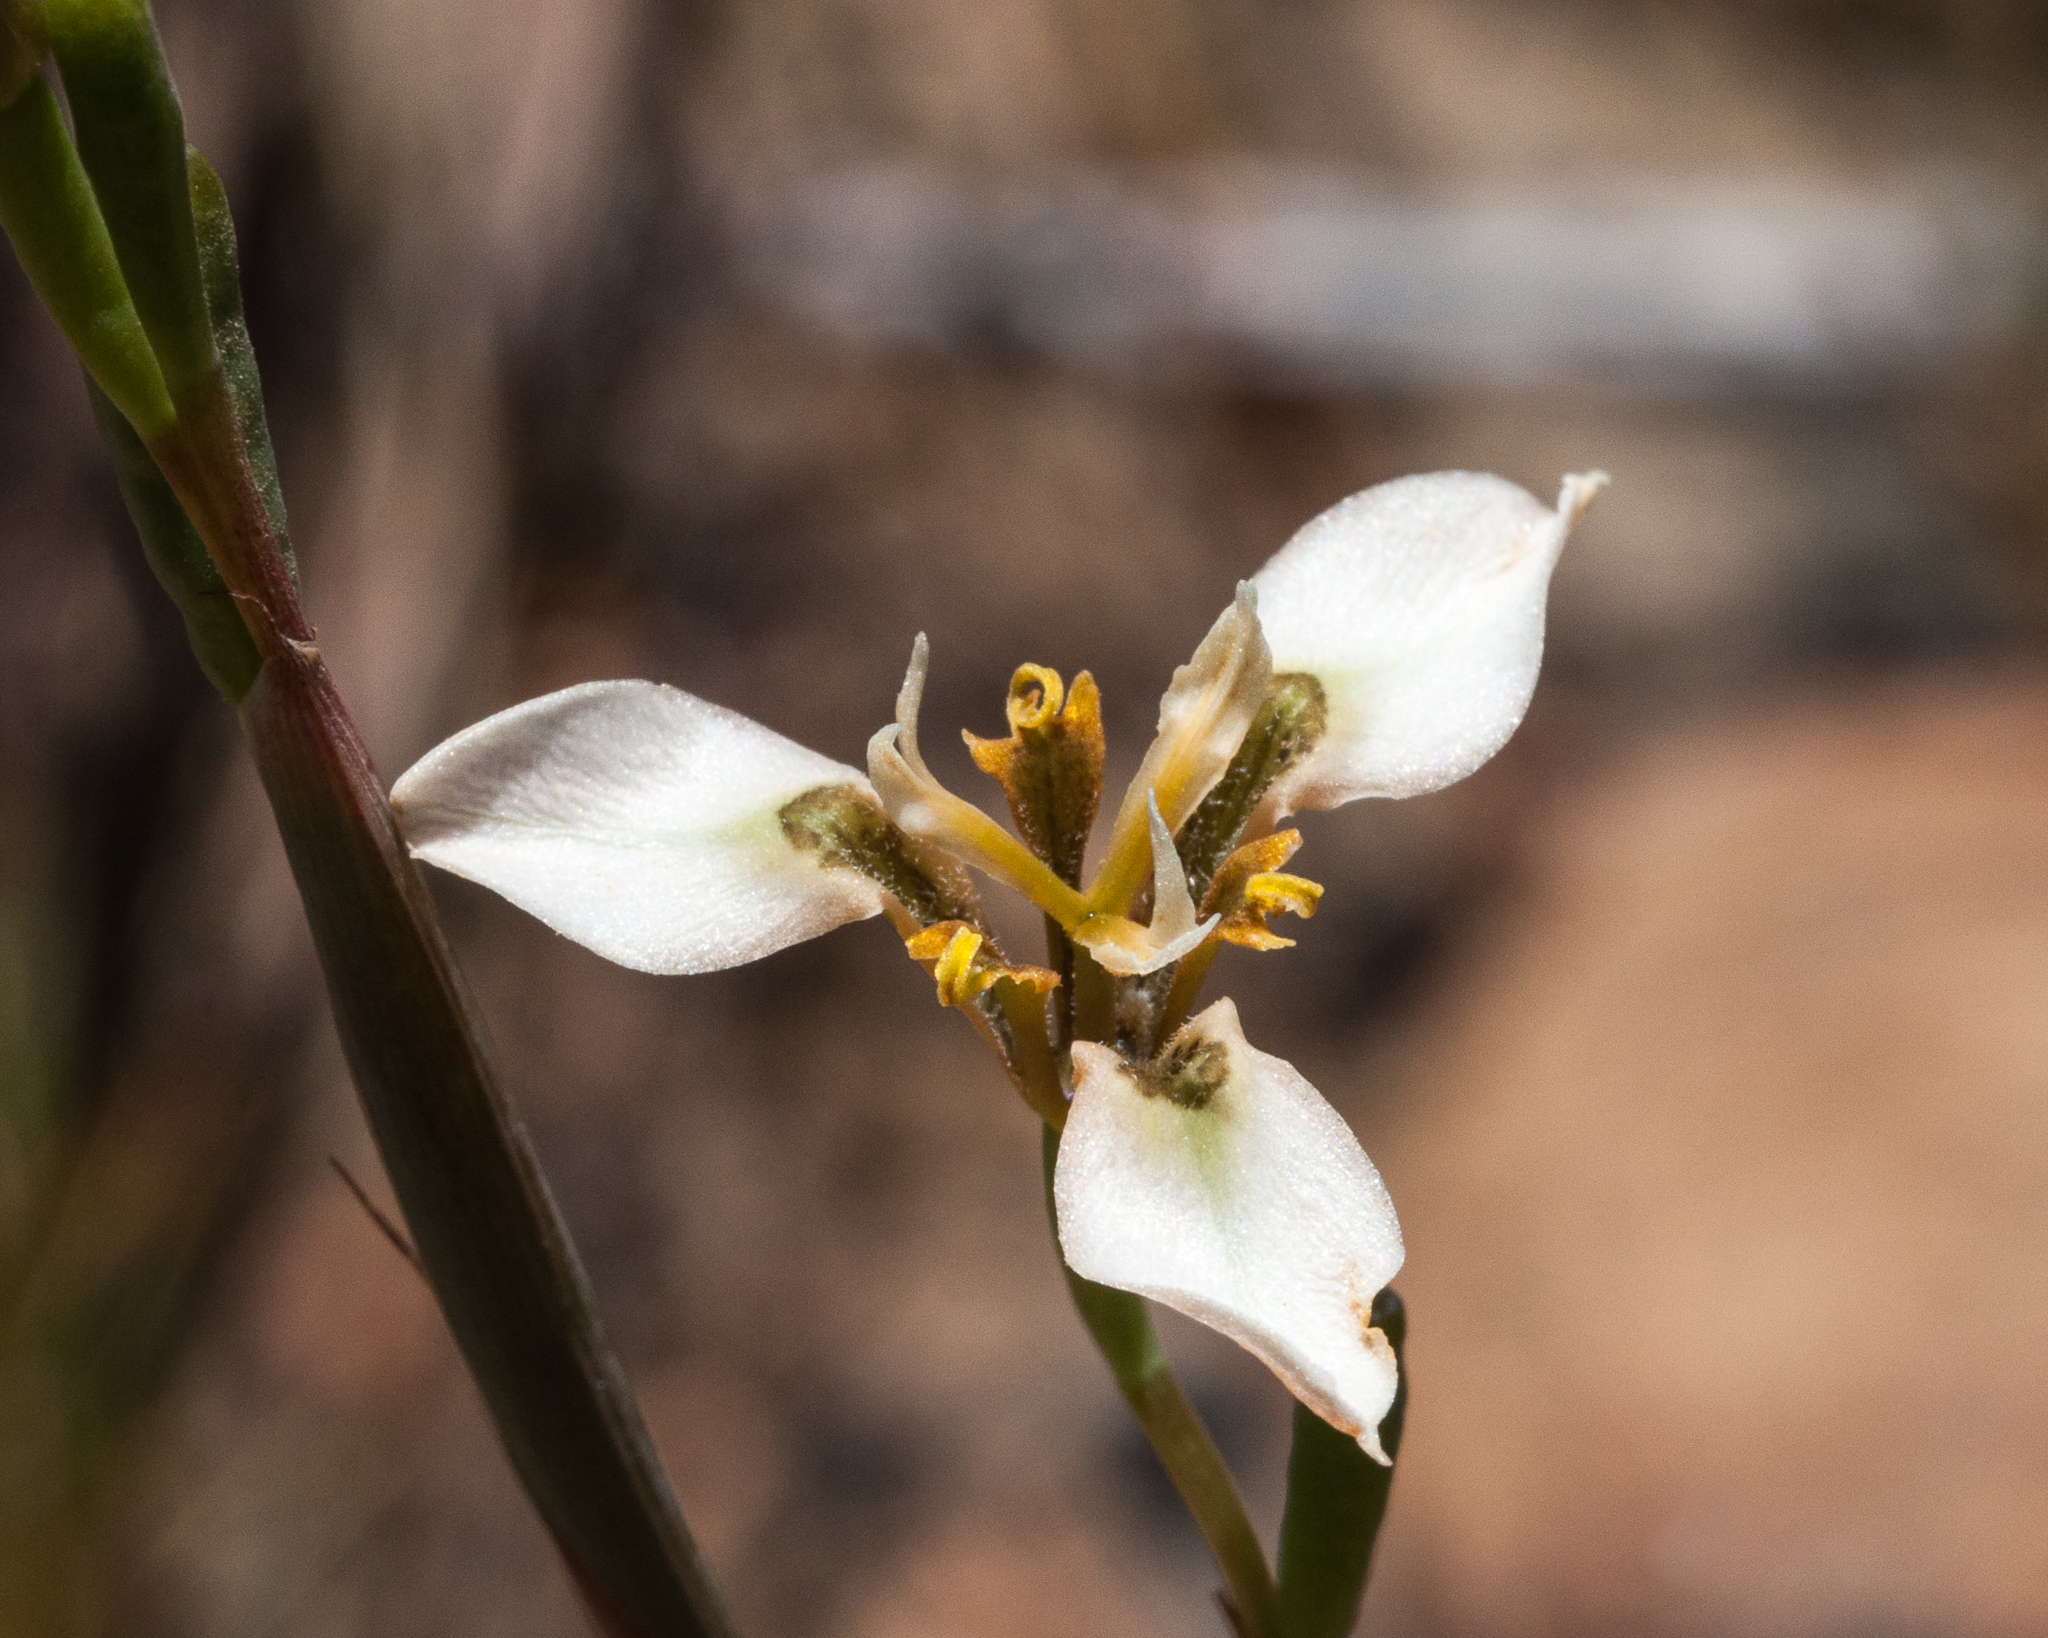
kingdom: Plantae
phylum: Tracheophyta
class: Liliopsida
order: Asparagales
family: Iridaceae
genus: Moraea
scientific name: Moraea tricuspidata
